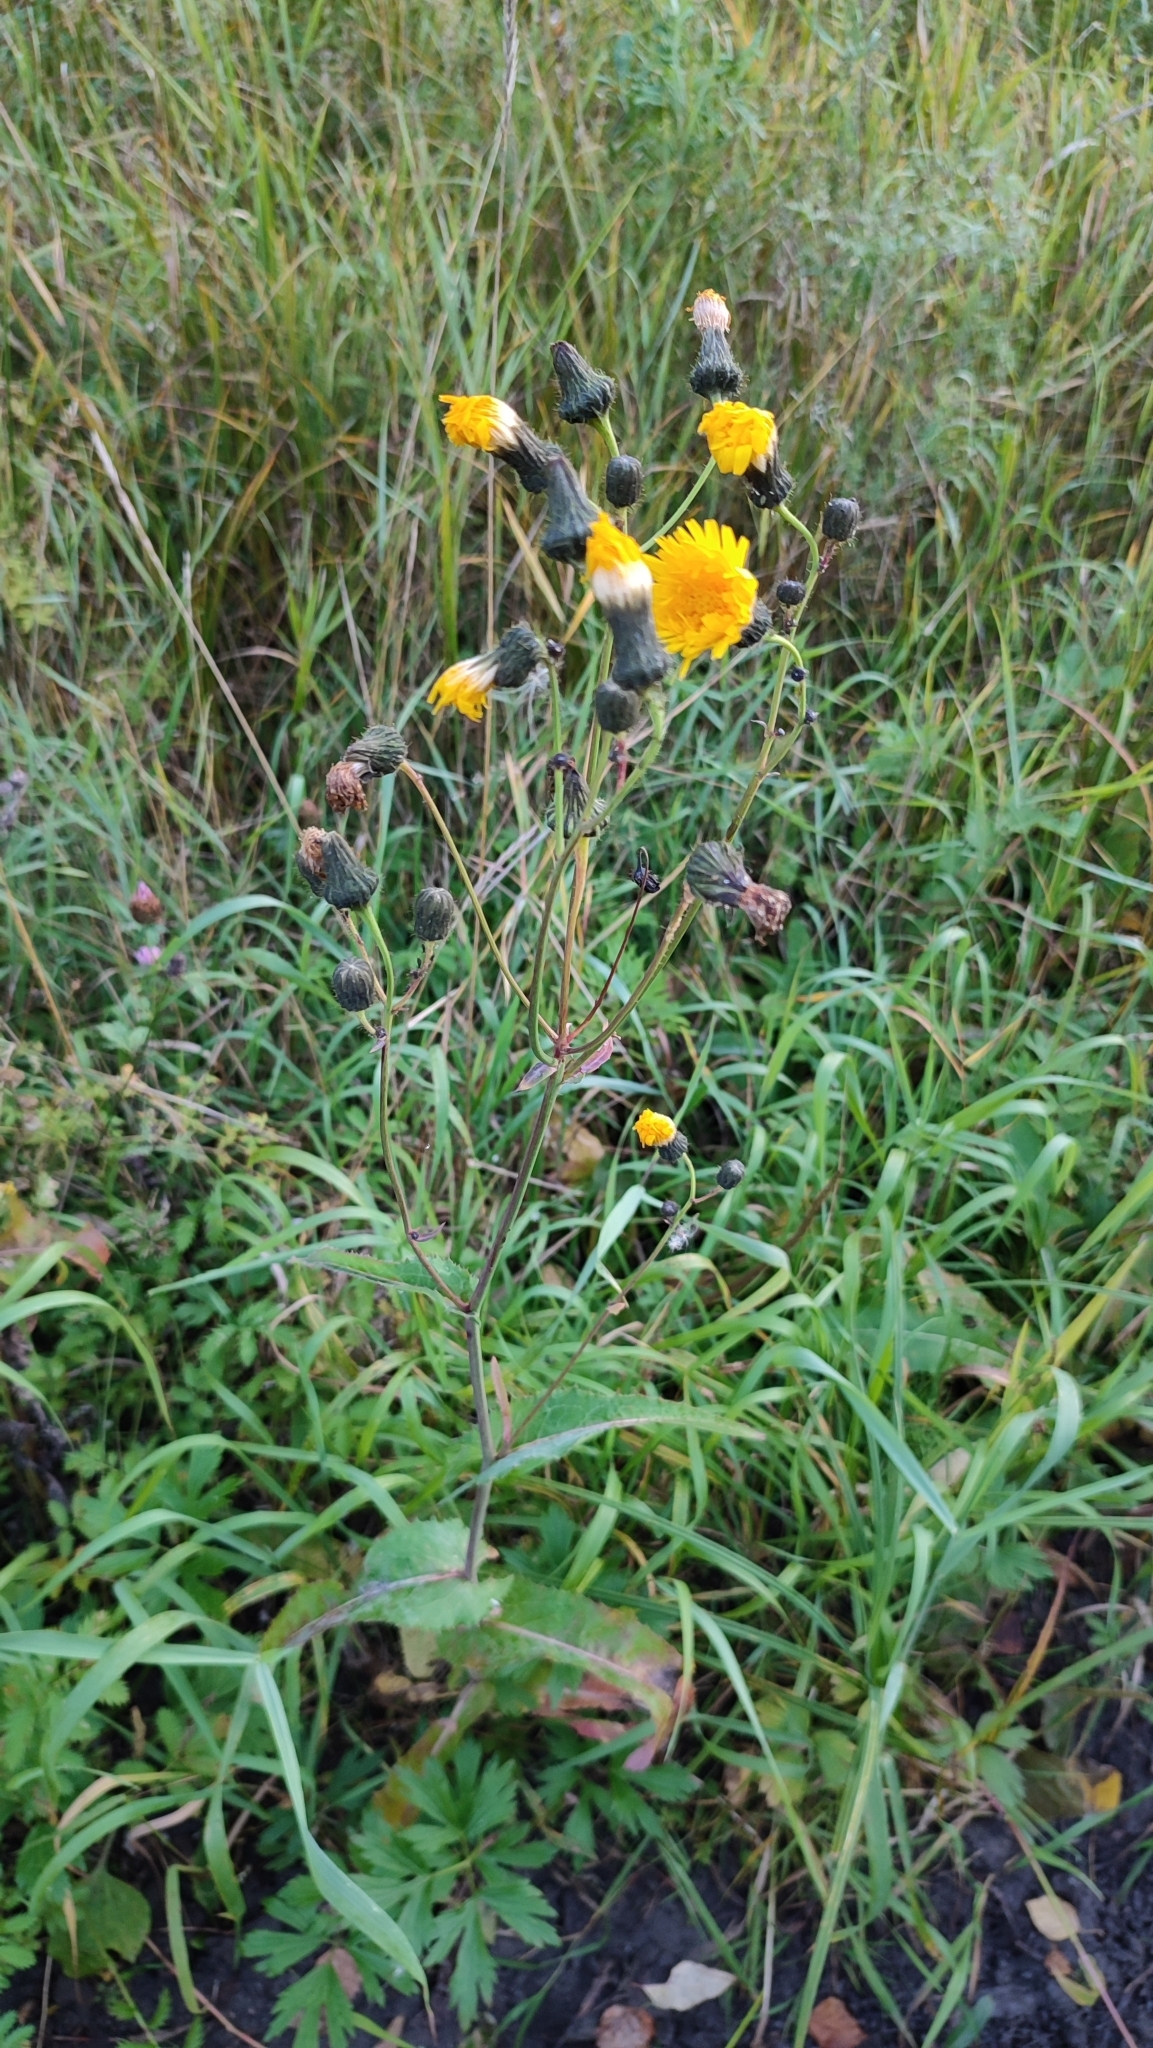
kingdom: Plantae
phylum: Tracheophyta
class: Magnoliopsida
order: Asterales
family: Asteraceae
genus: Sonchus
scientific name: Sonchus arvensis
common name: Perennial sow-thistle
